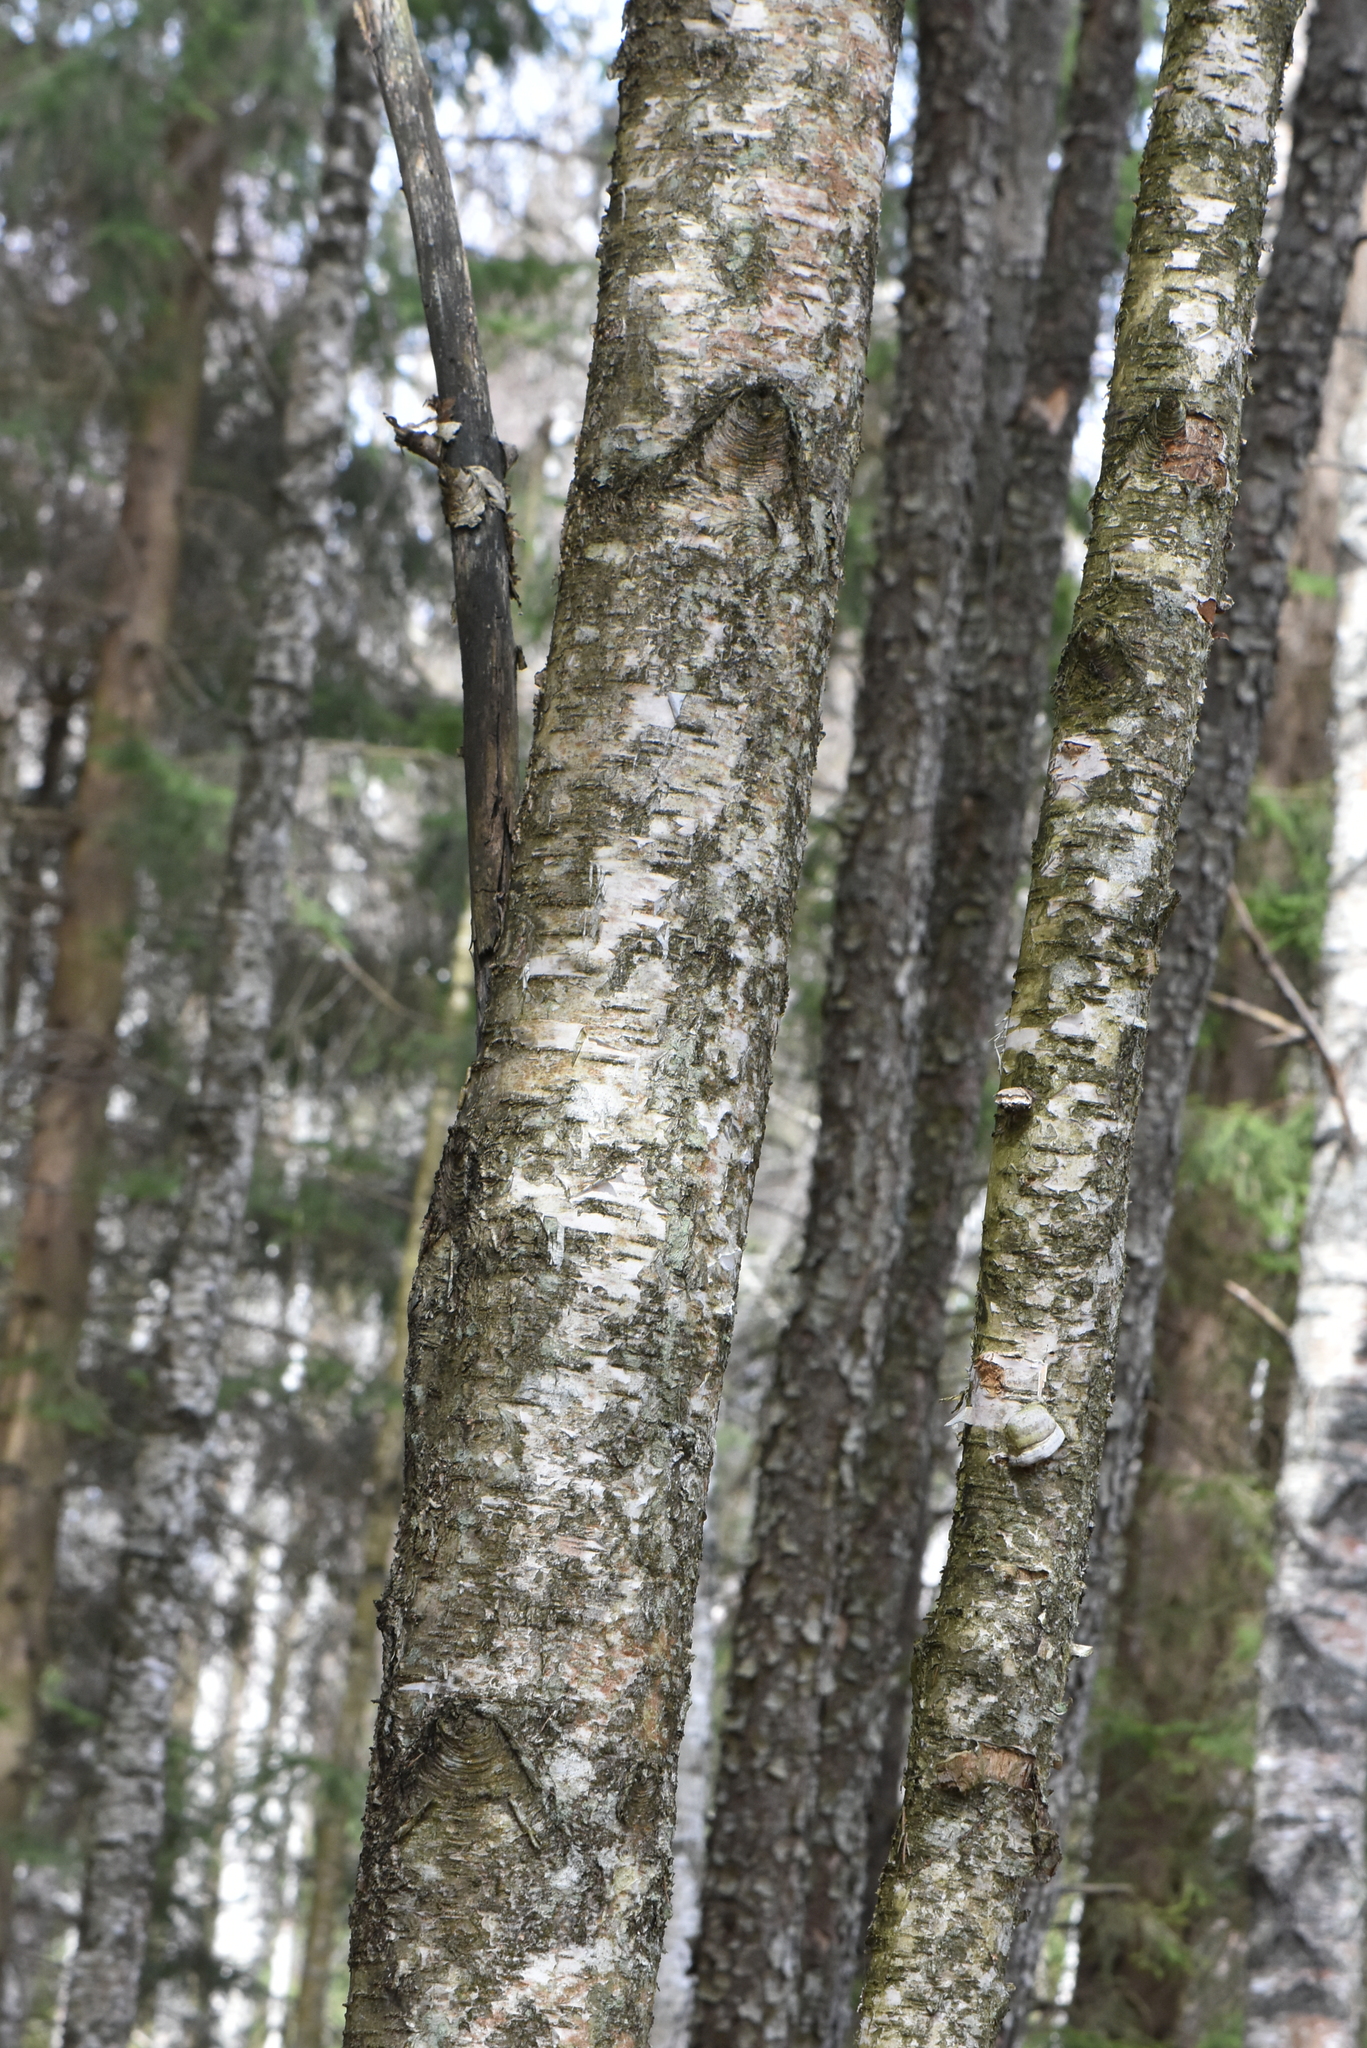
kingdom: Plantae
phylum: Tracheophyta
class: Magnoliopsida
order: Fagales
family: Betulaceae
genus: Betula
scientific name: Betula pubescens
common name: Downy birch
